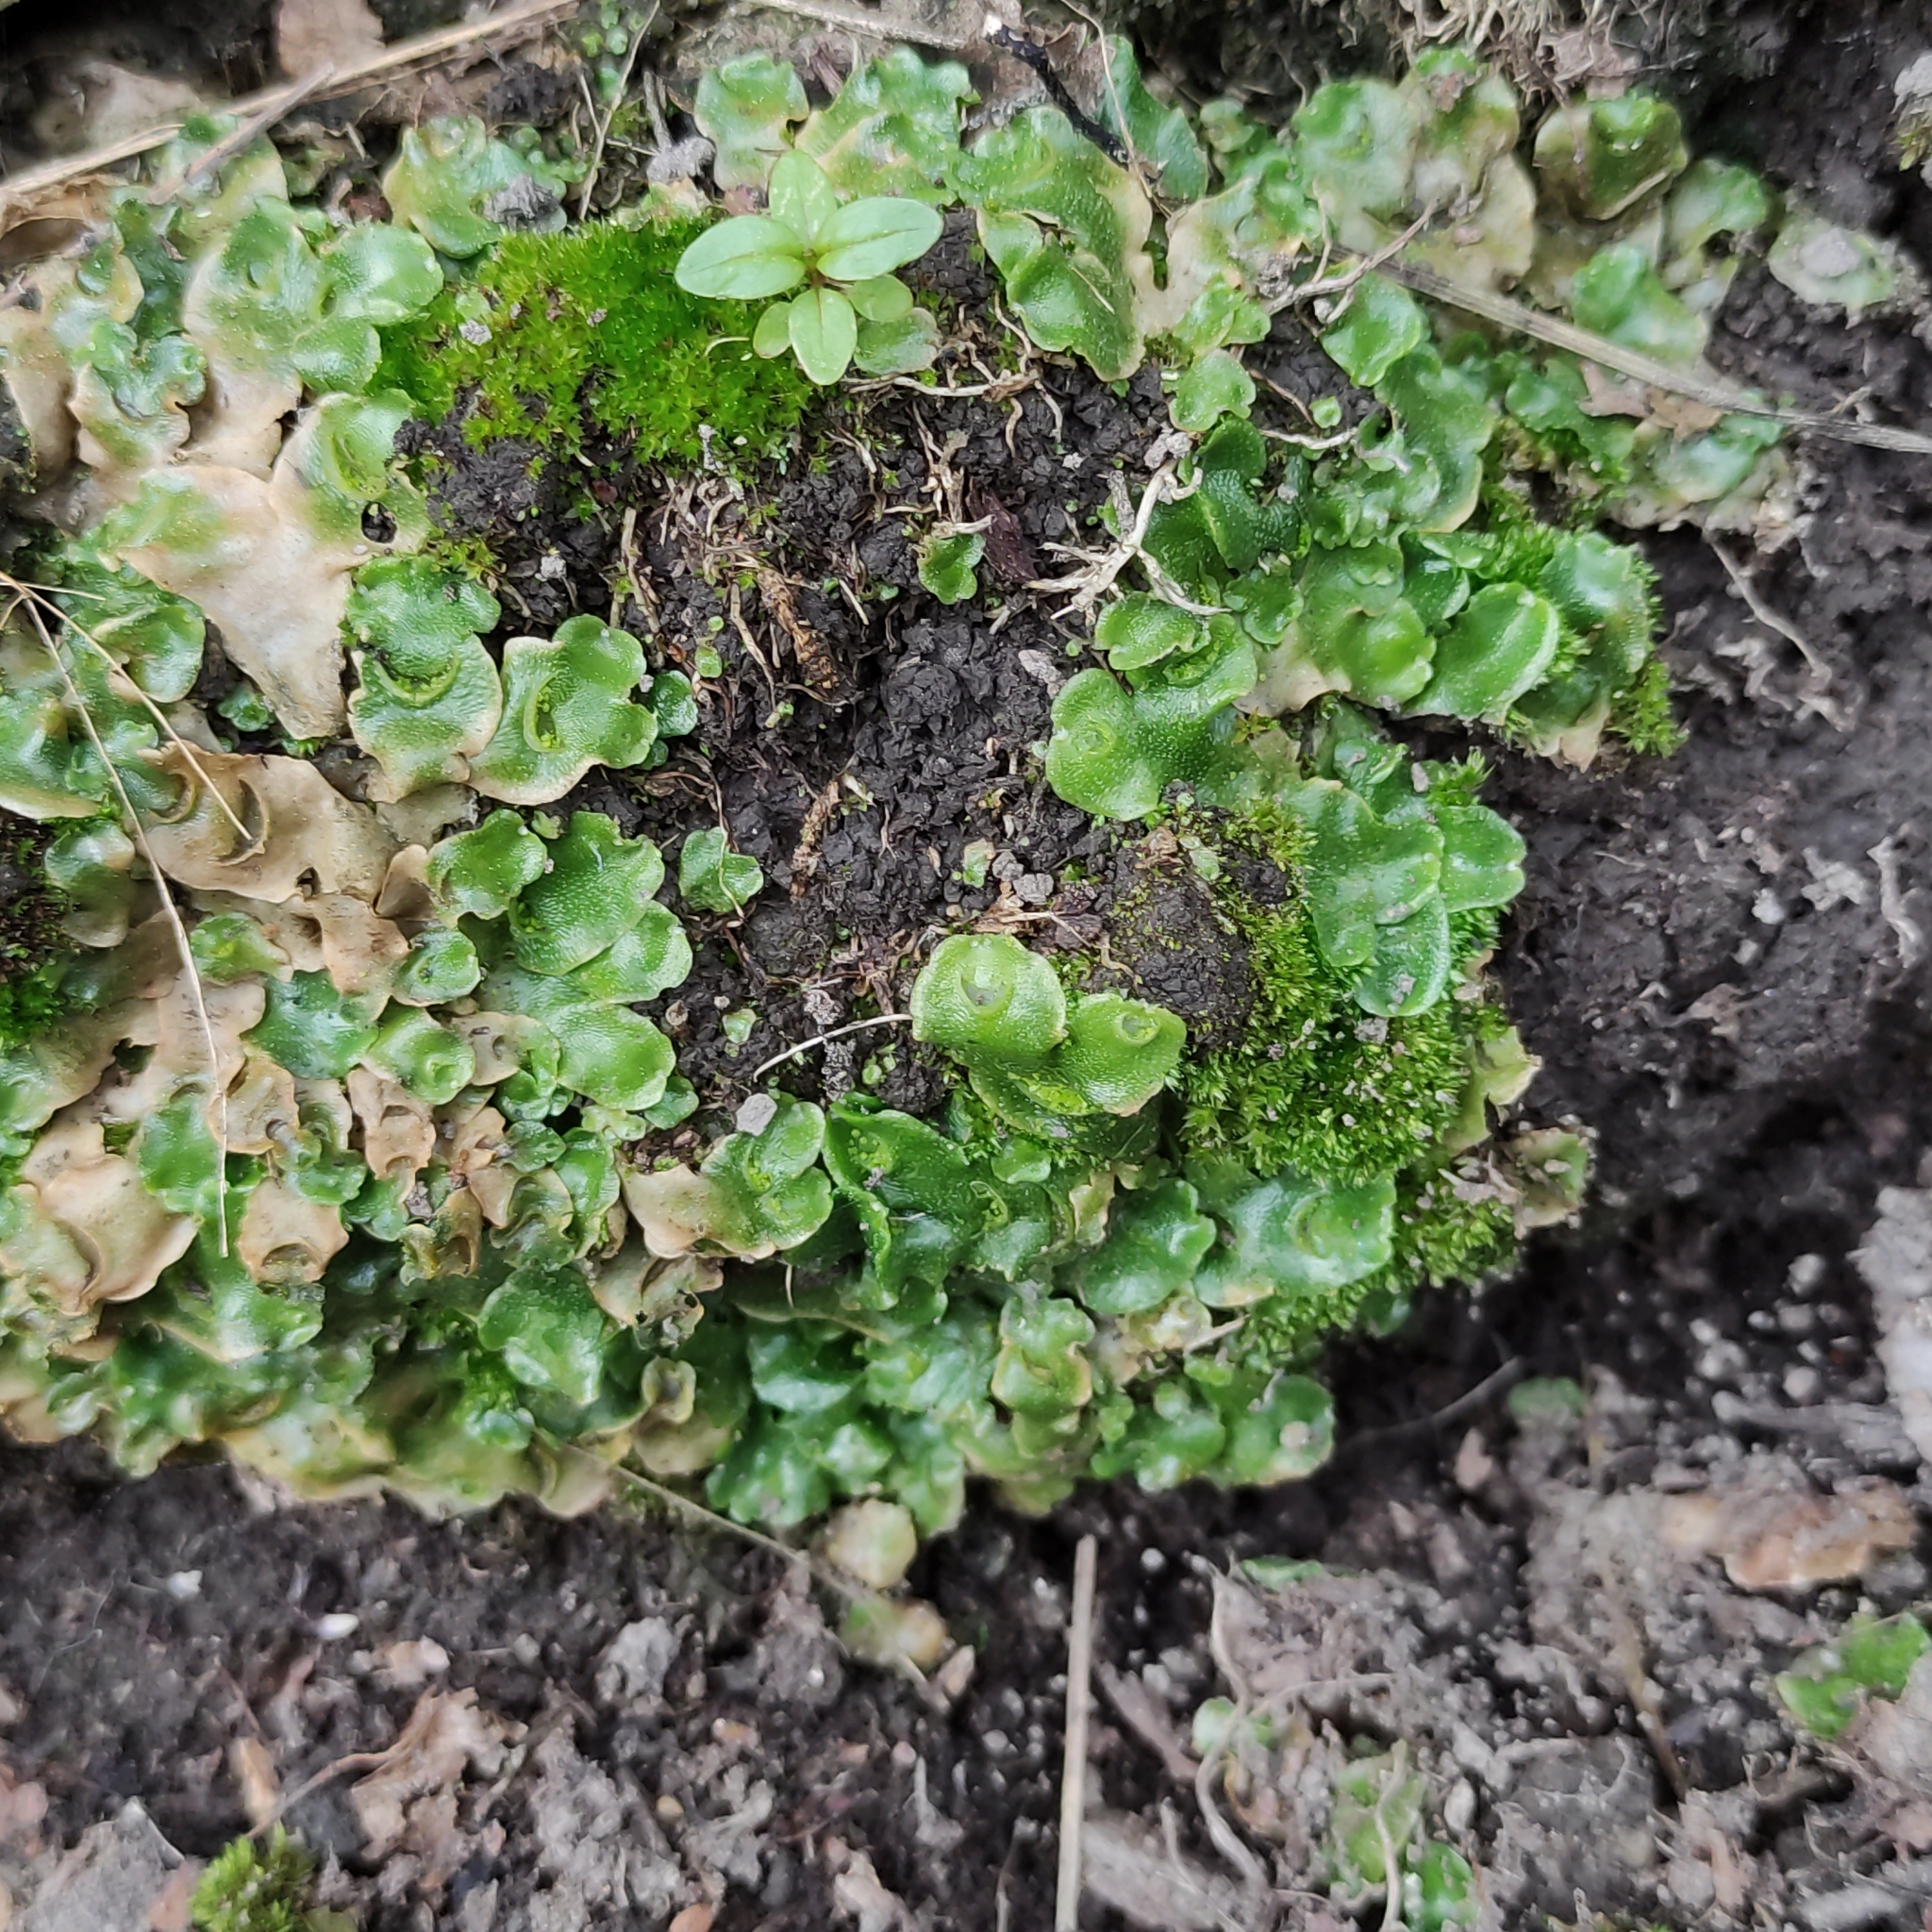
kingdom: Plantae
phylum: Marchantiophyta
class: Marchantiopsida
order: Lunulariales
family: Lunulariaceae
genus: Lunularia
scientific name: Lunularia cruciata
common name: Crescent-cup liverwort
